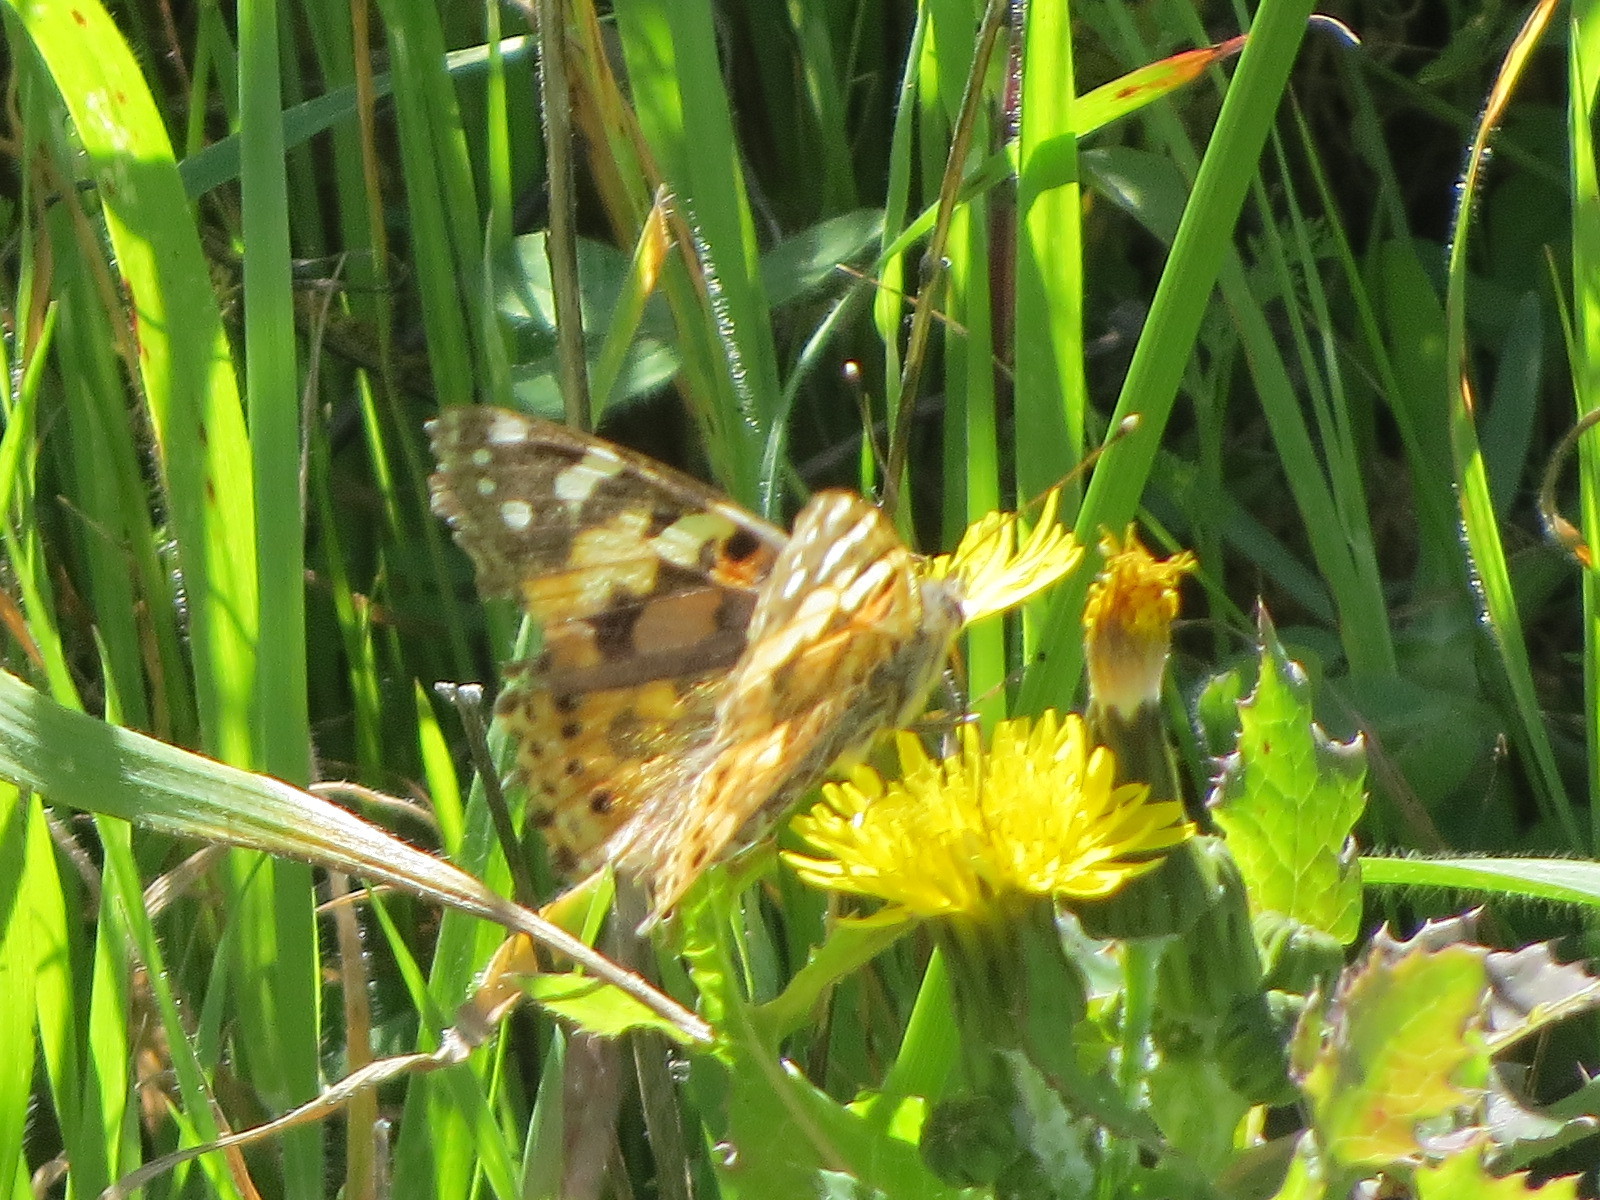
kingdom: Animalia
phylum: Arthropoda
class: Insecta
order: Lepidoptera
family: Nymphalidae
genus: Vanessa
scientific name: Vanessa cardui
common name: Painted lady
